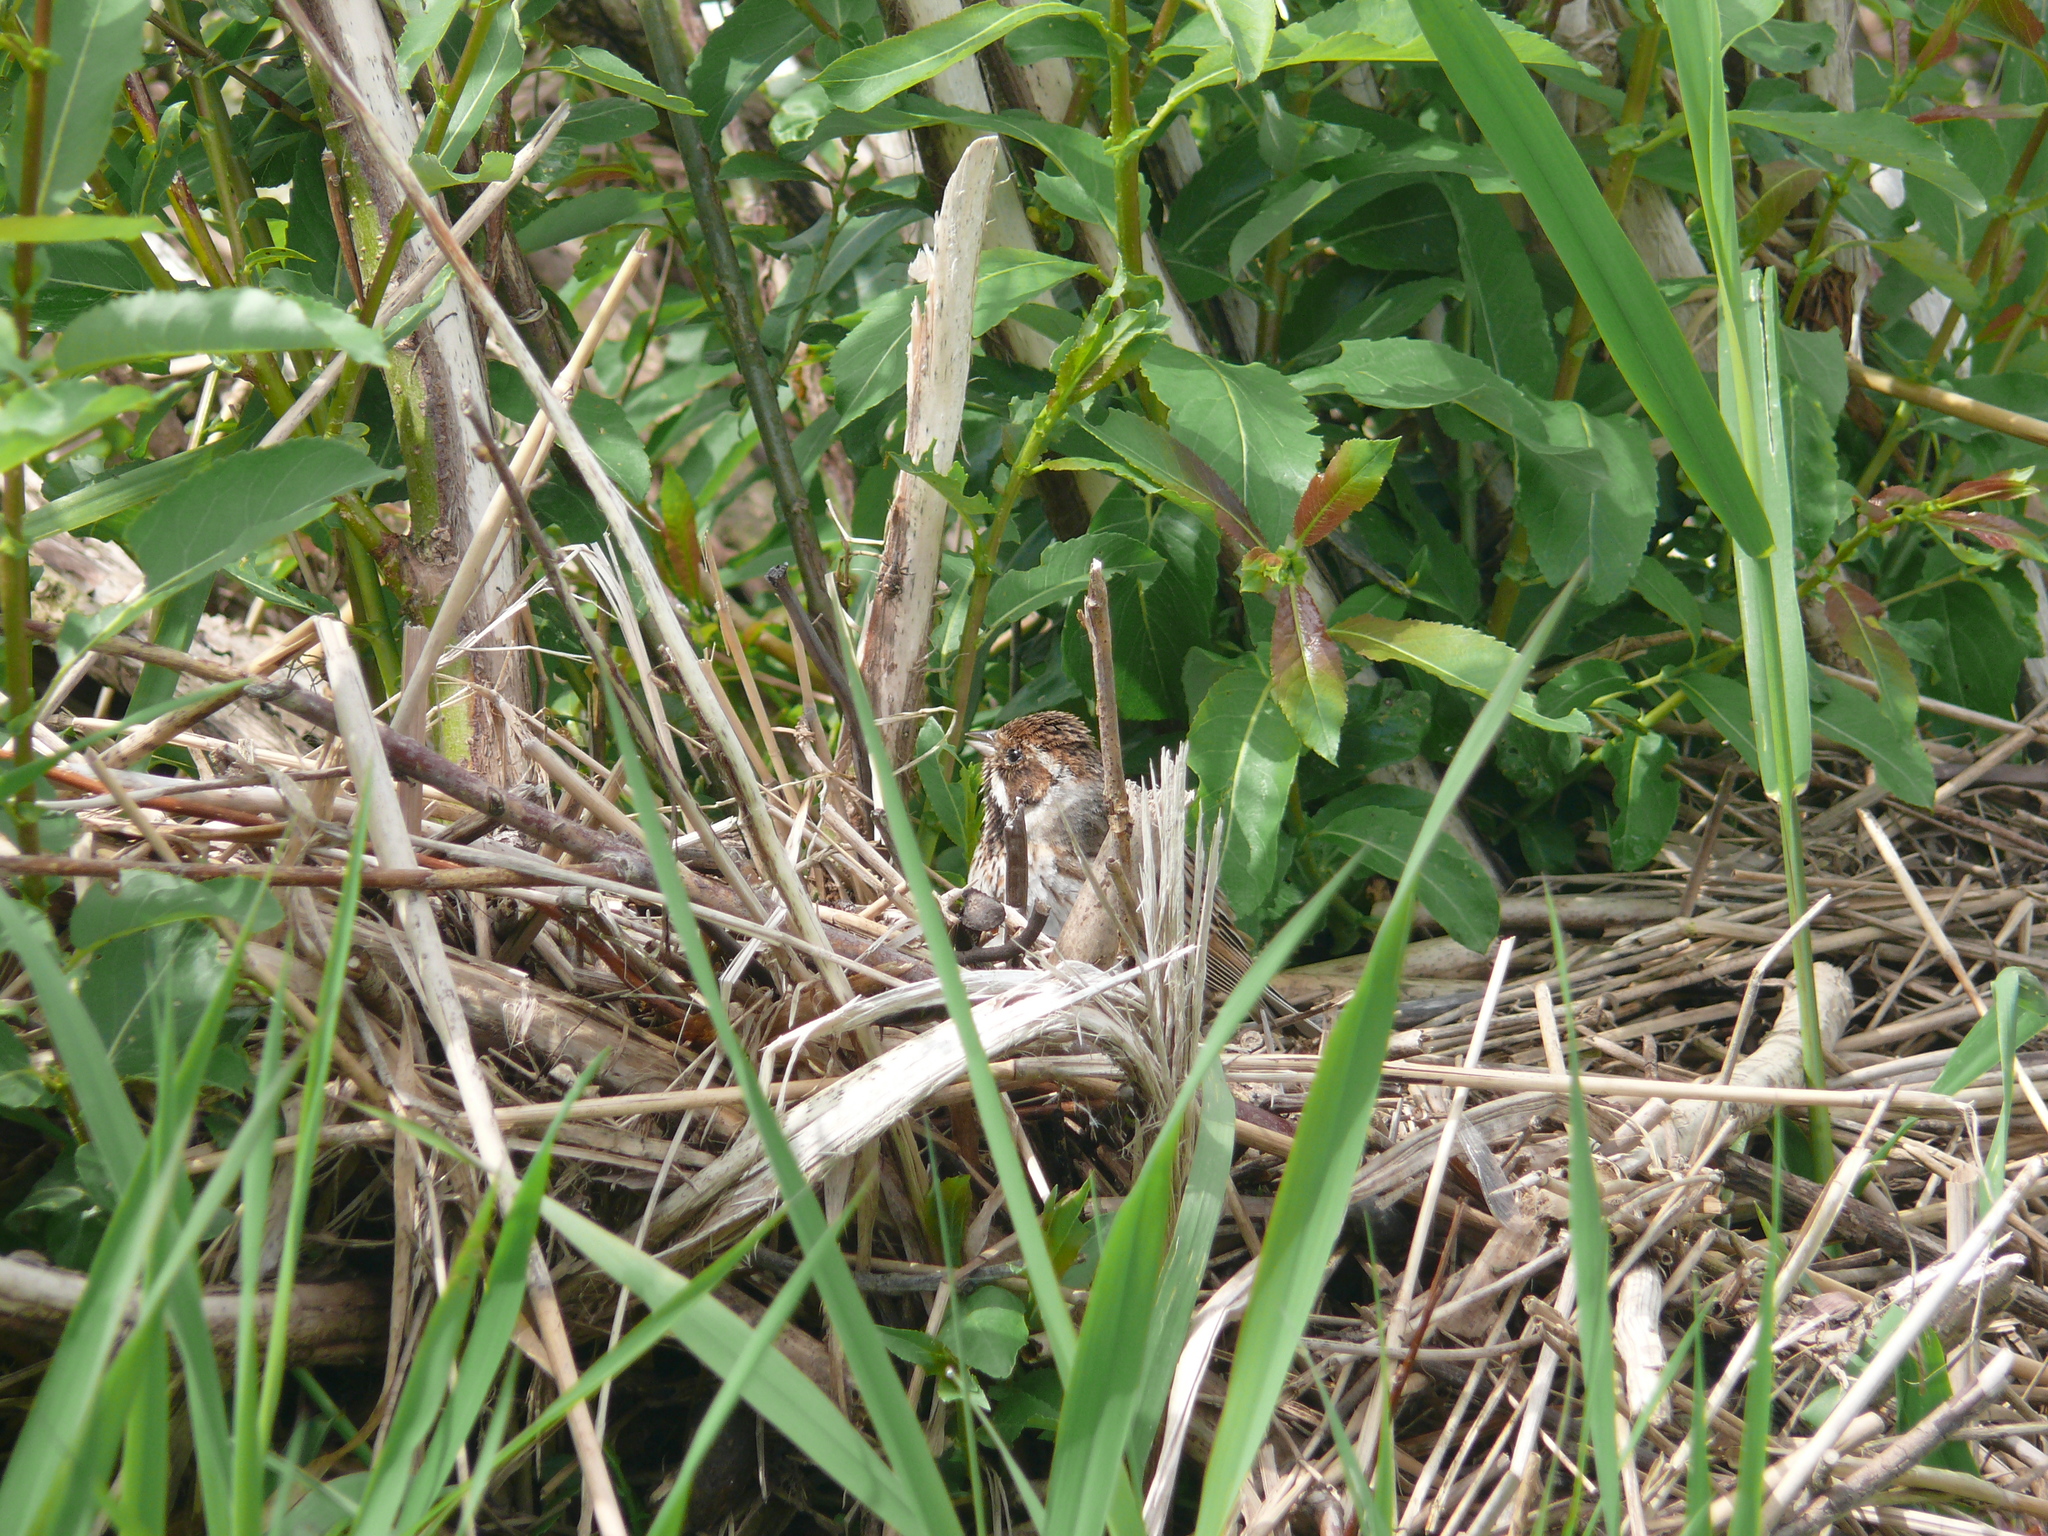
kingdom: Animalia
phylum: Chordata
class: Aves
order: Passeriformes
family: Emberizidae
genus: Emberiza
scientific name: Emberiza schoeniclus
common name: Reed bunting
